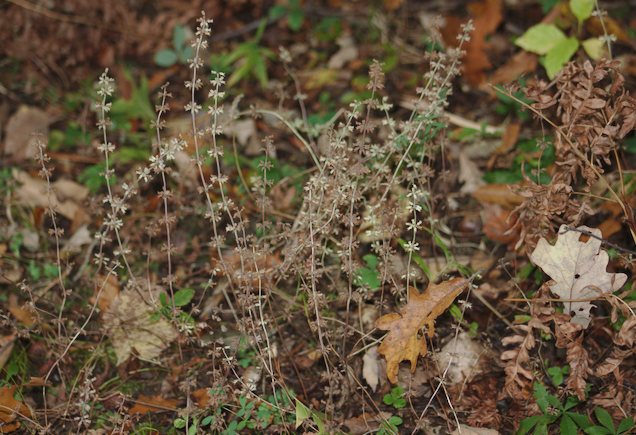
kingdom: Plantae
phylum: Tracheophyta
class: Magnoliopsida
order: Lamiales
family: Lamiaceae
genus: Hedeoma
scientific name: Hedeoma pulegioides
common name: American false pennyroyal
